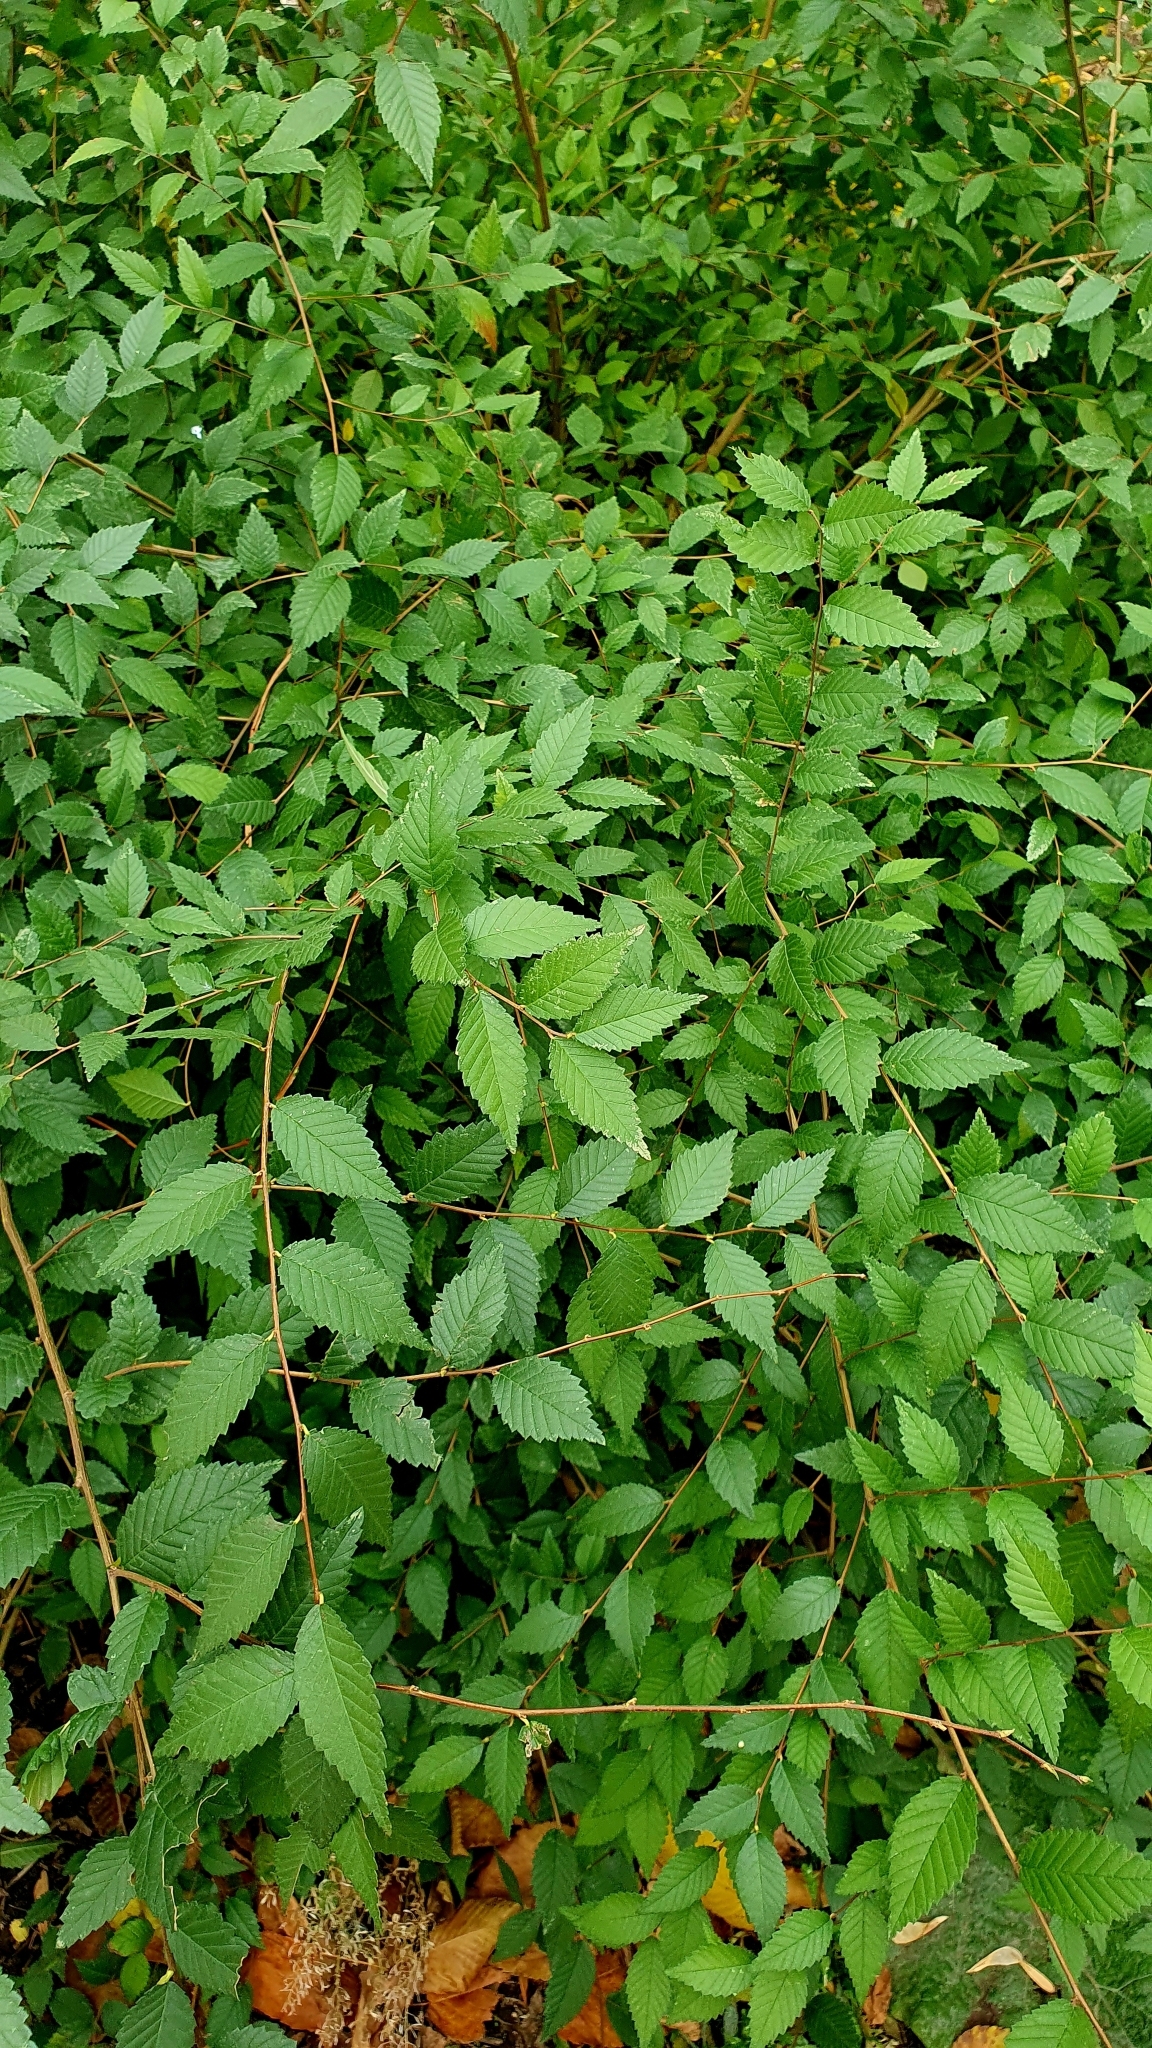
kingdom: Plantae
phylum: Tracheophyta
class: Magnoliopsida
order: Rosales
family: Ulmaceae
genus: Ulmus
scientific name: Ulmus pumila
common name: Siberian elm
